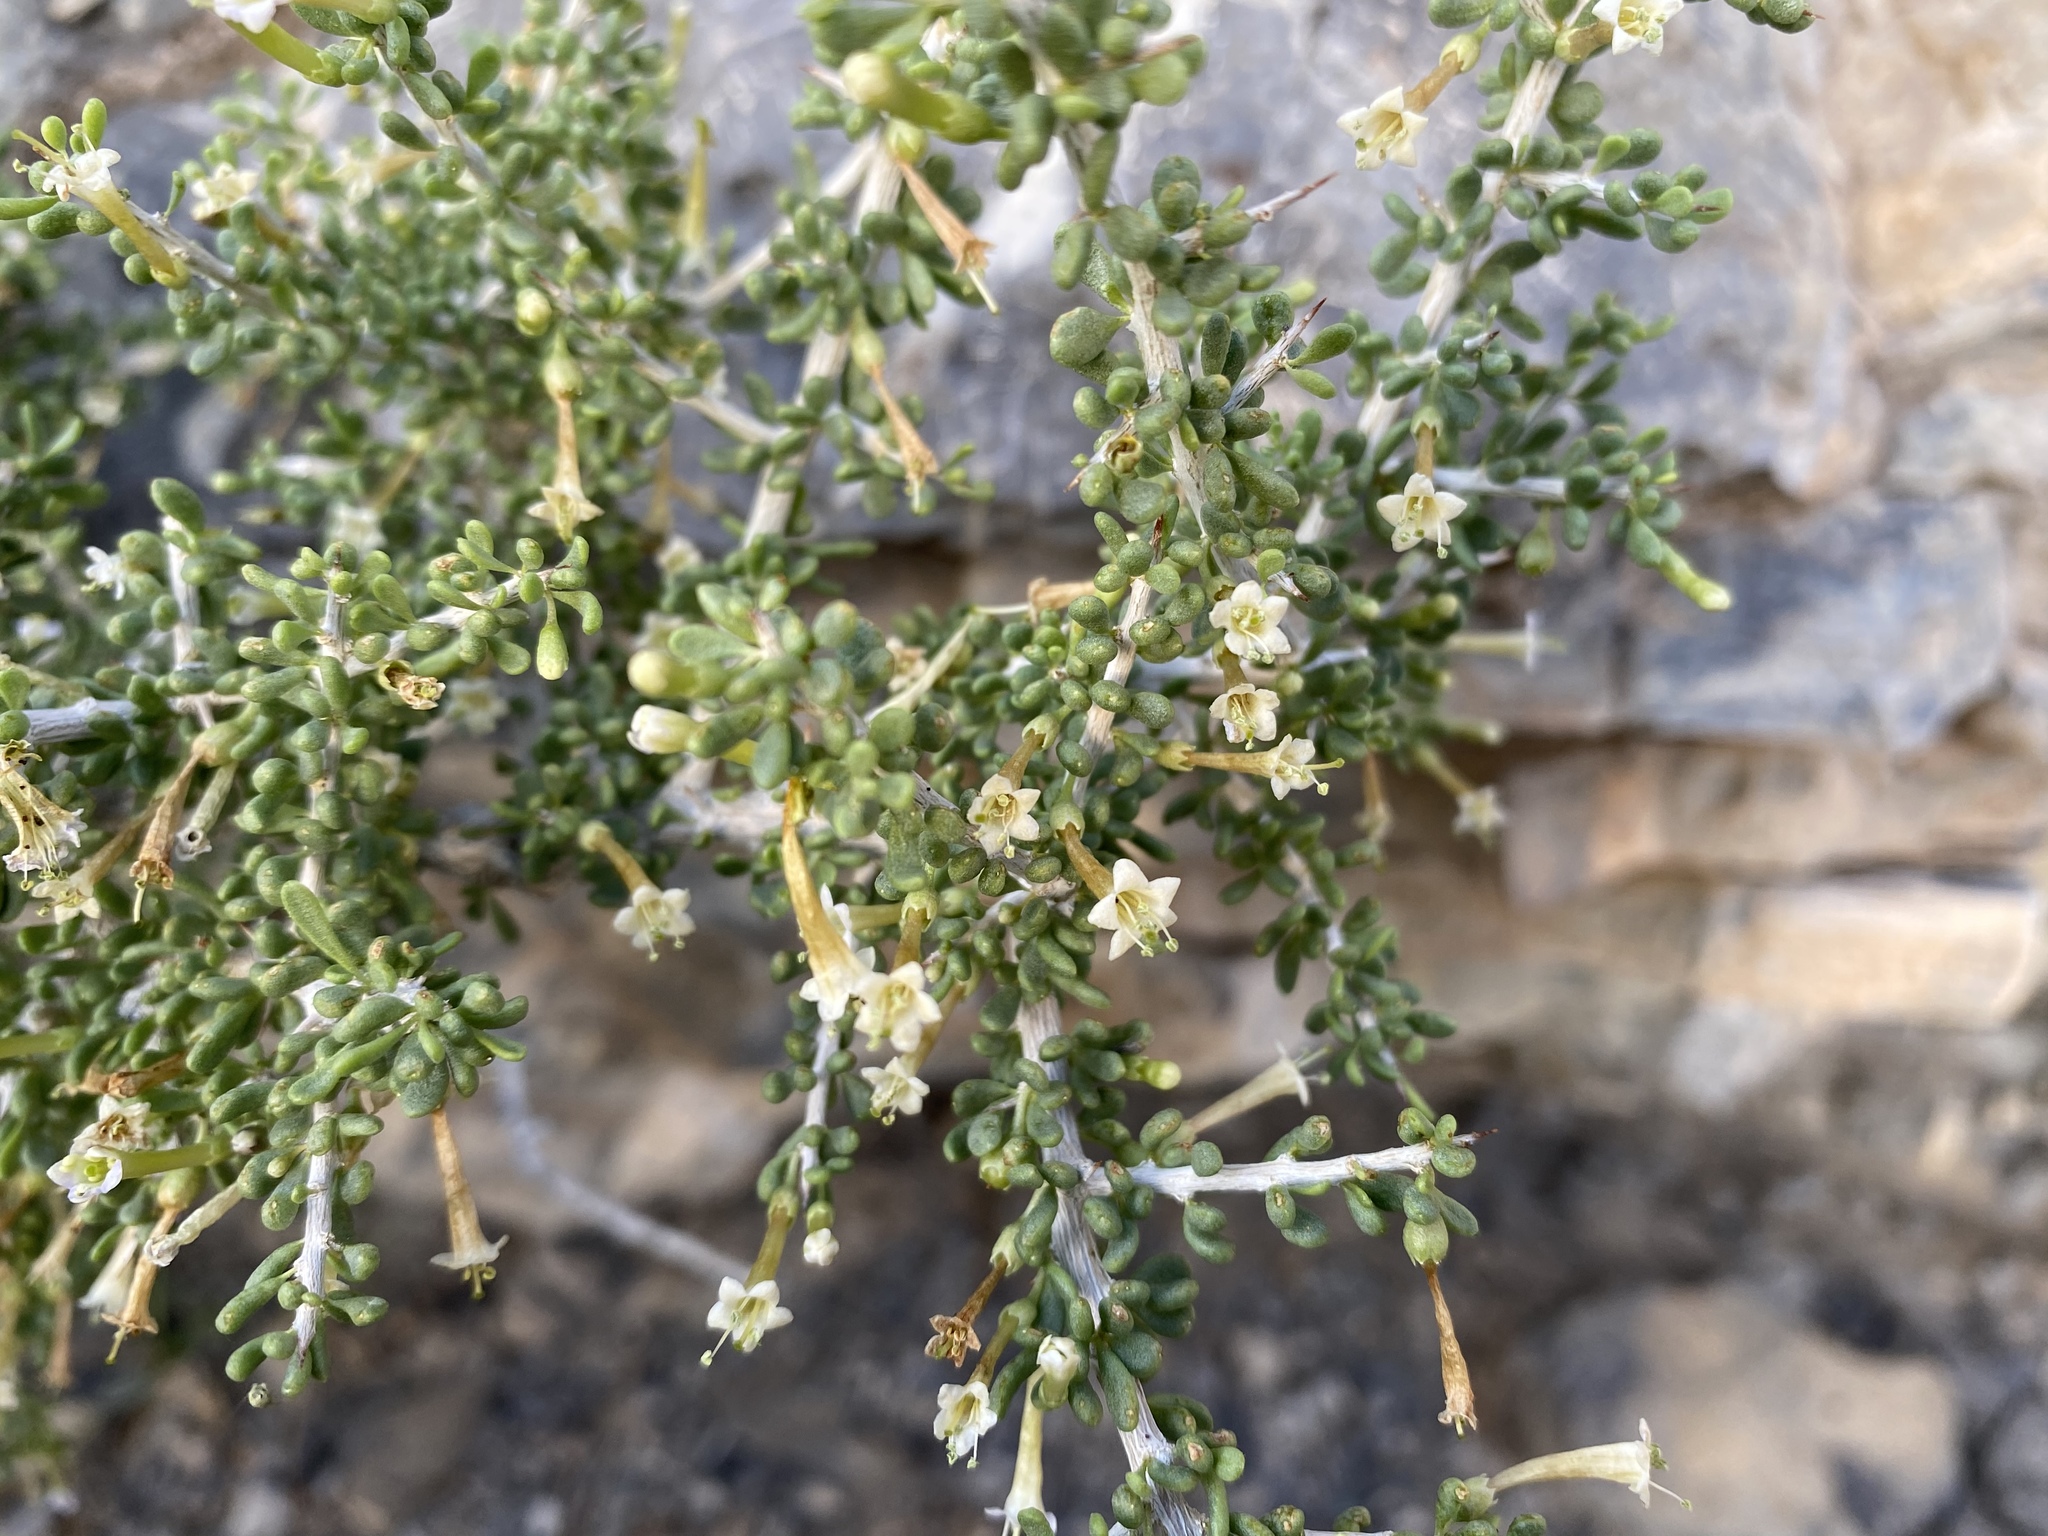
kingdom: Plantae
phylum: Tracheophyta
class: Magnoliopsida
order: Solanales
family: Solanaceae
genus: Lycium
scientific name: Lycium andersonii
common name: Water-jacket
